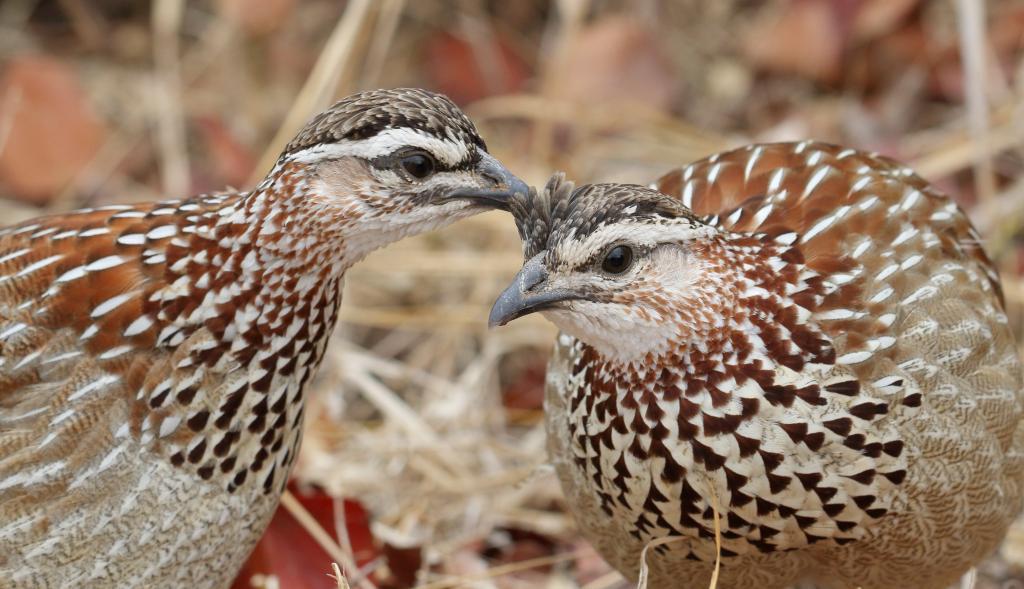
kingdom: Animalia
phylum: Chordata
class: Aves
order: Galliformes
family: Phasianidae
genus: Ortygornis
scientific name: Ortygornis sephaena
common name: Crested francolin
